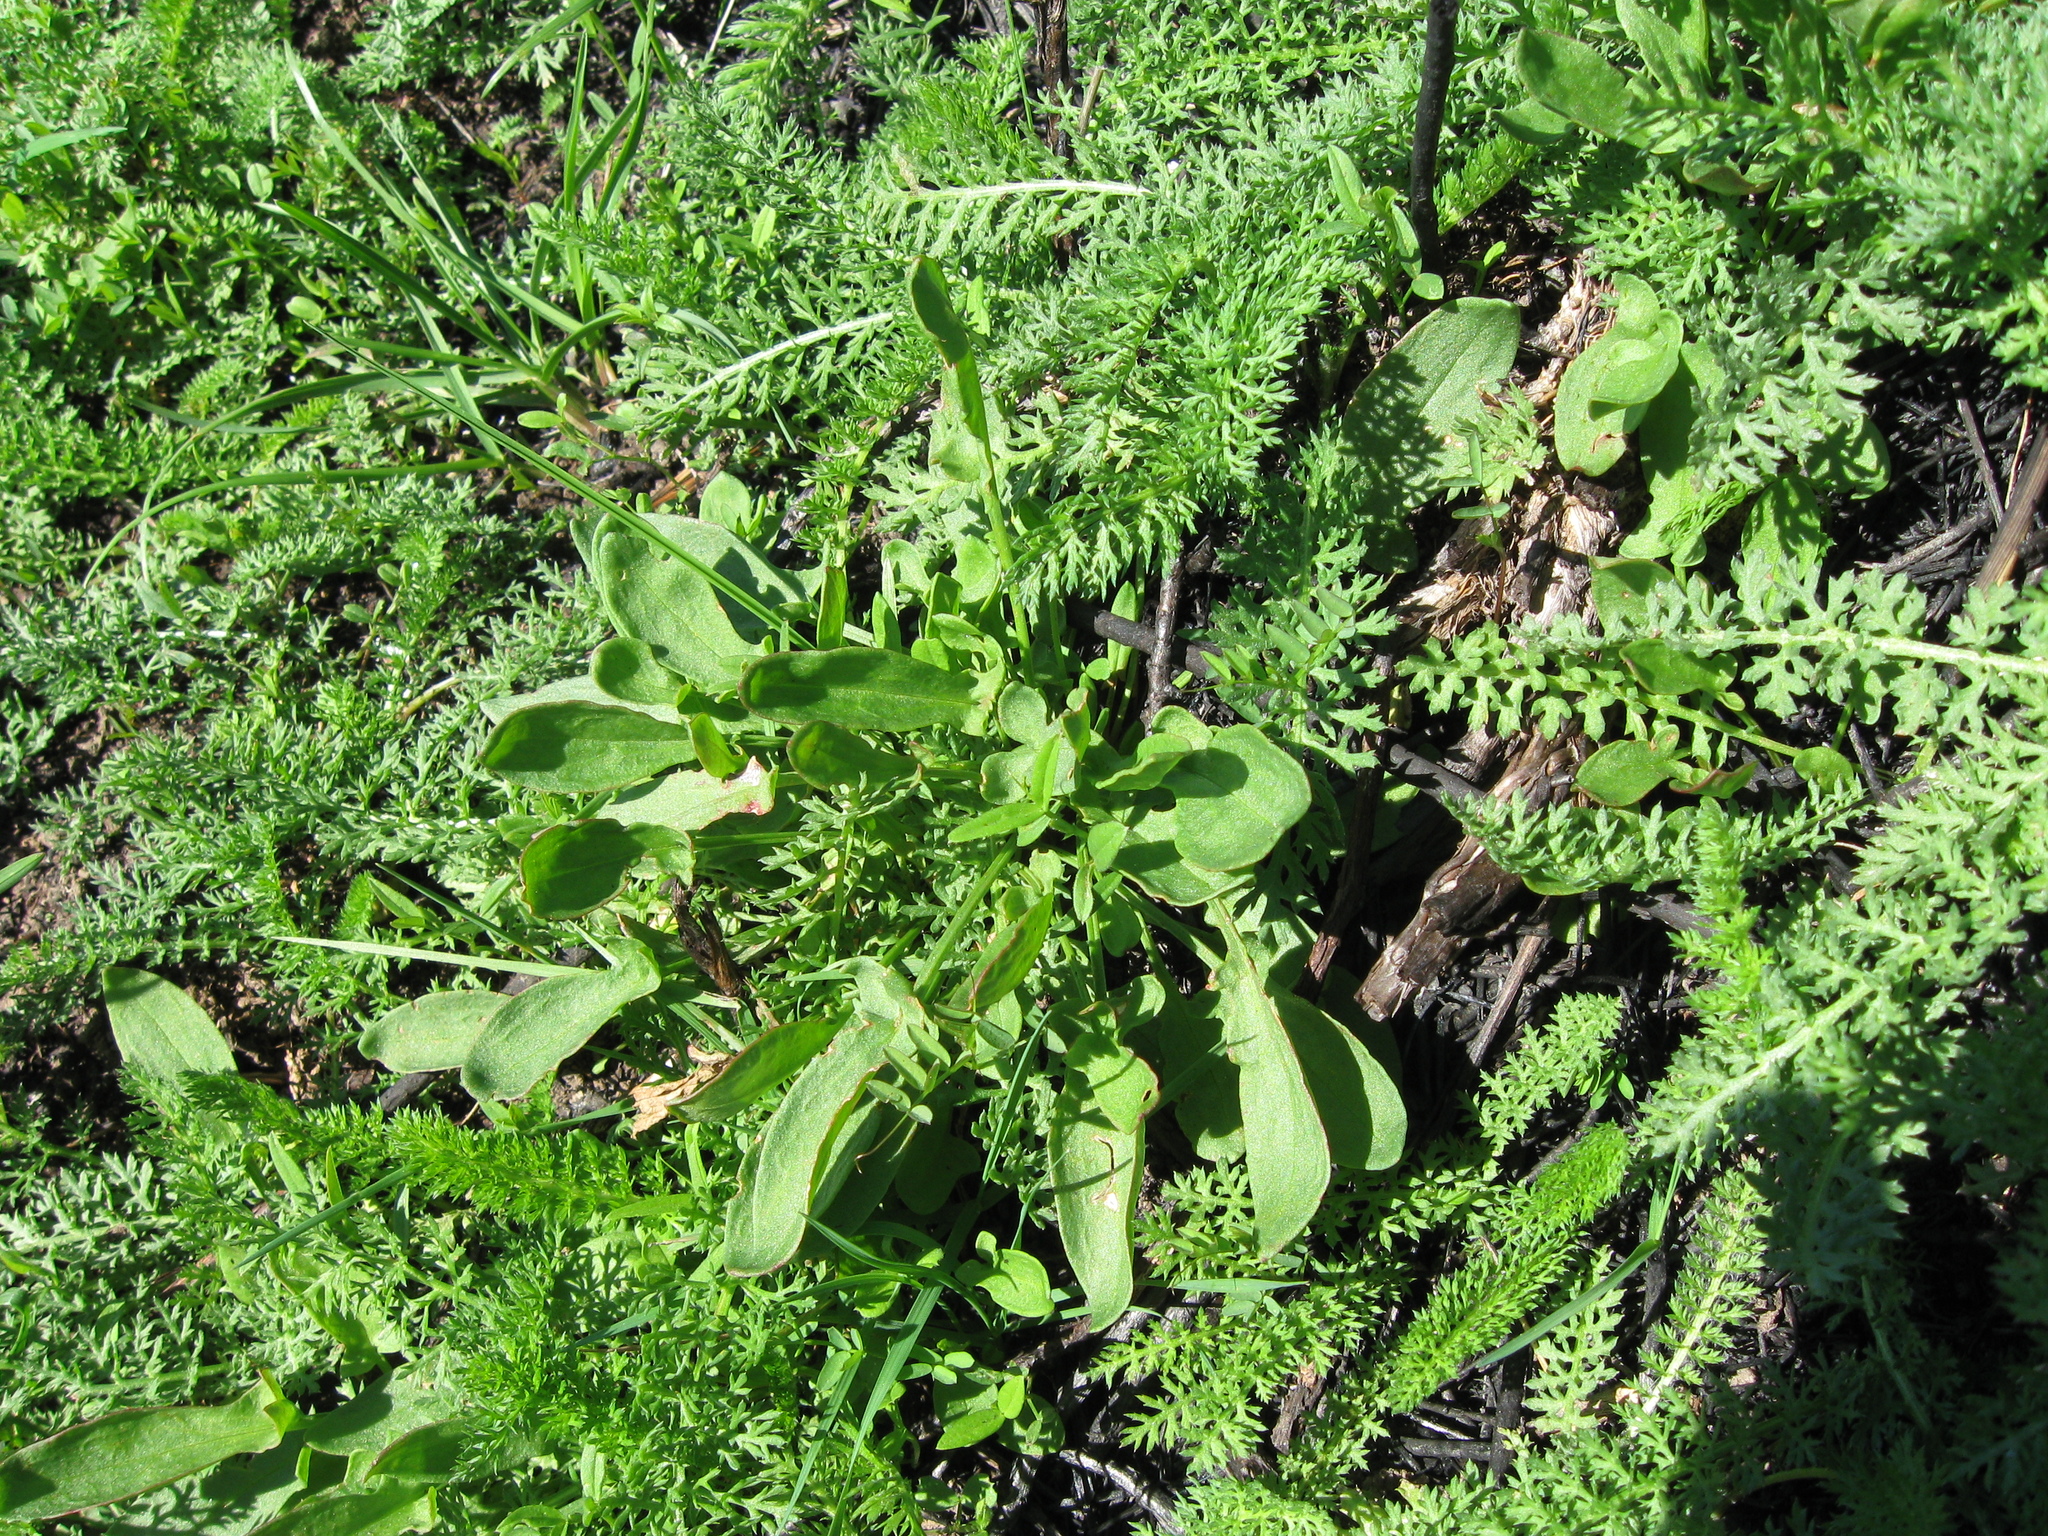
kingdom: Plantae
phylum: Tracheophyta
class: Magnoliopsida
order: Caryophyllales
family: Polygonaceae
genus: Rumex
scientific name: Rumex acetosella
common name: Common sheep sorrel
